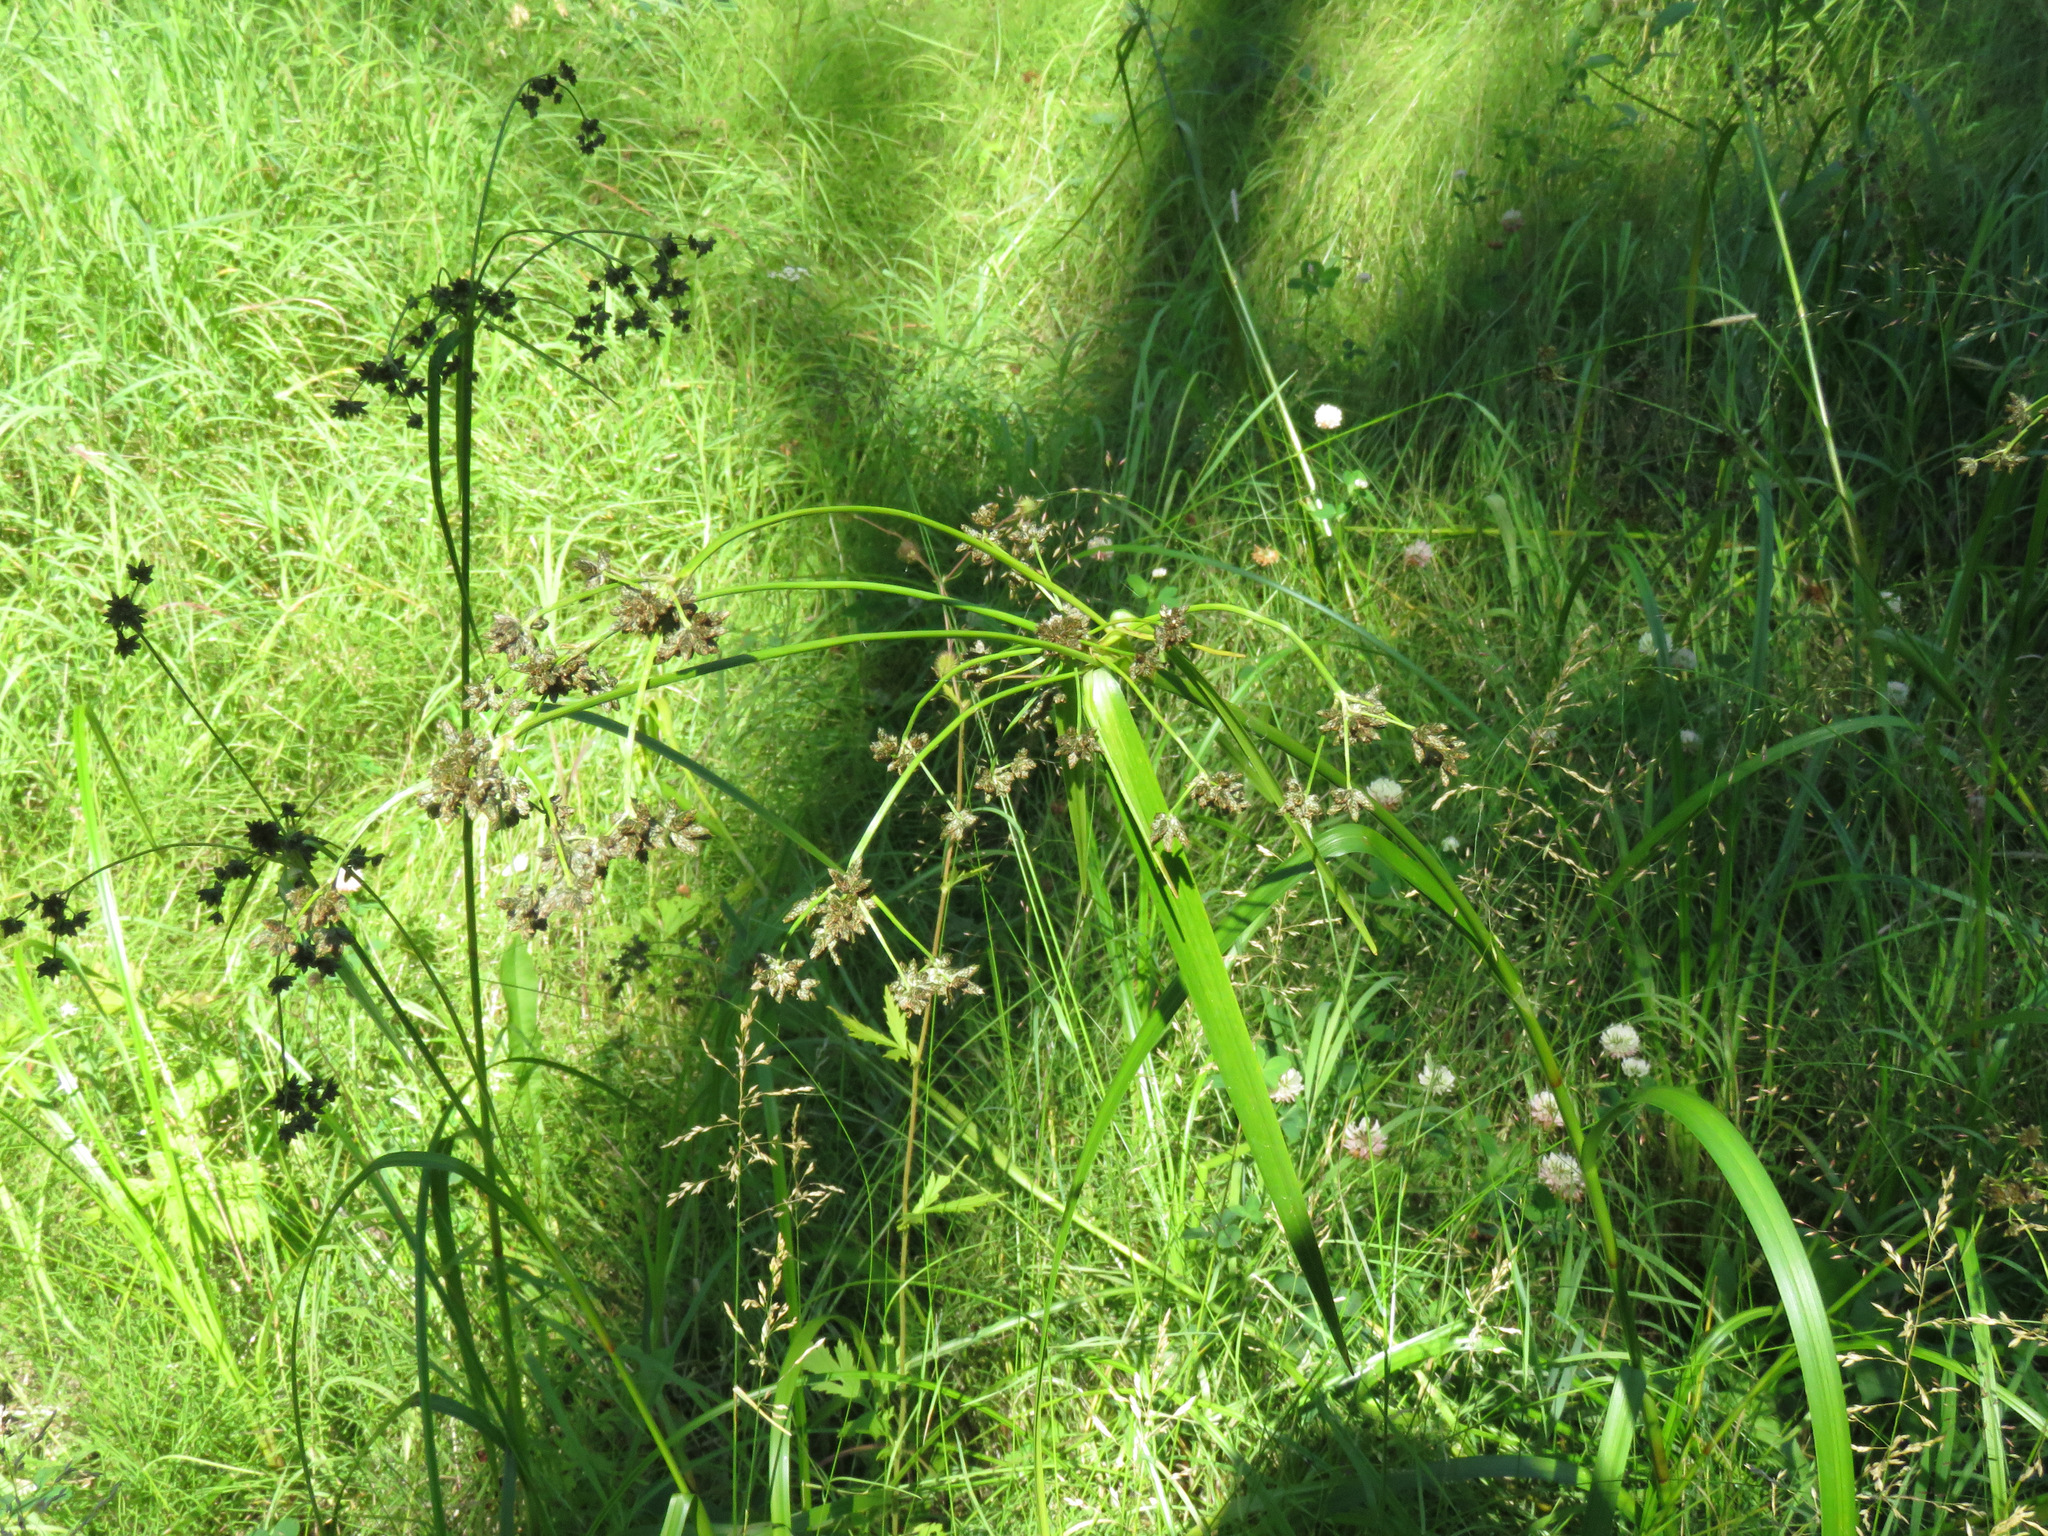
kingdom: Plantae
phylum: Tracheophyta
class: Liliopsida
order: Poales
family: Cyperaceae
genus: Scirpus
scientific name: Scirpus microcarpus
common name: Panicled bulrush
